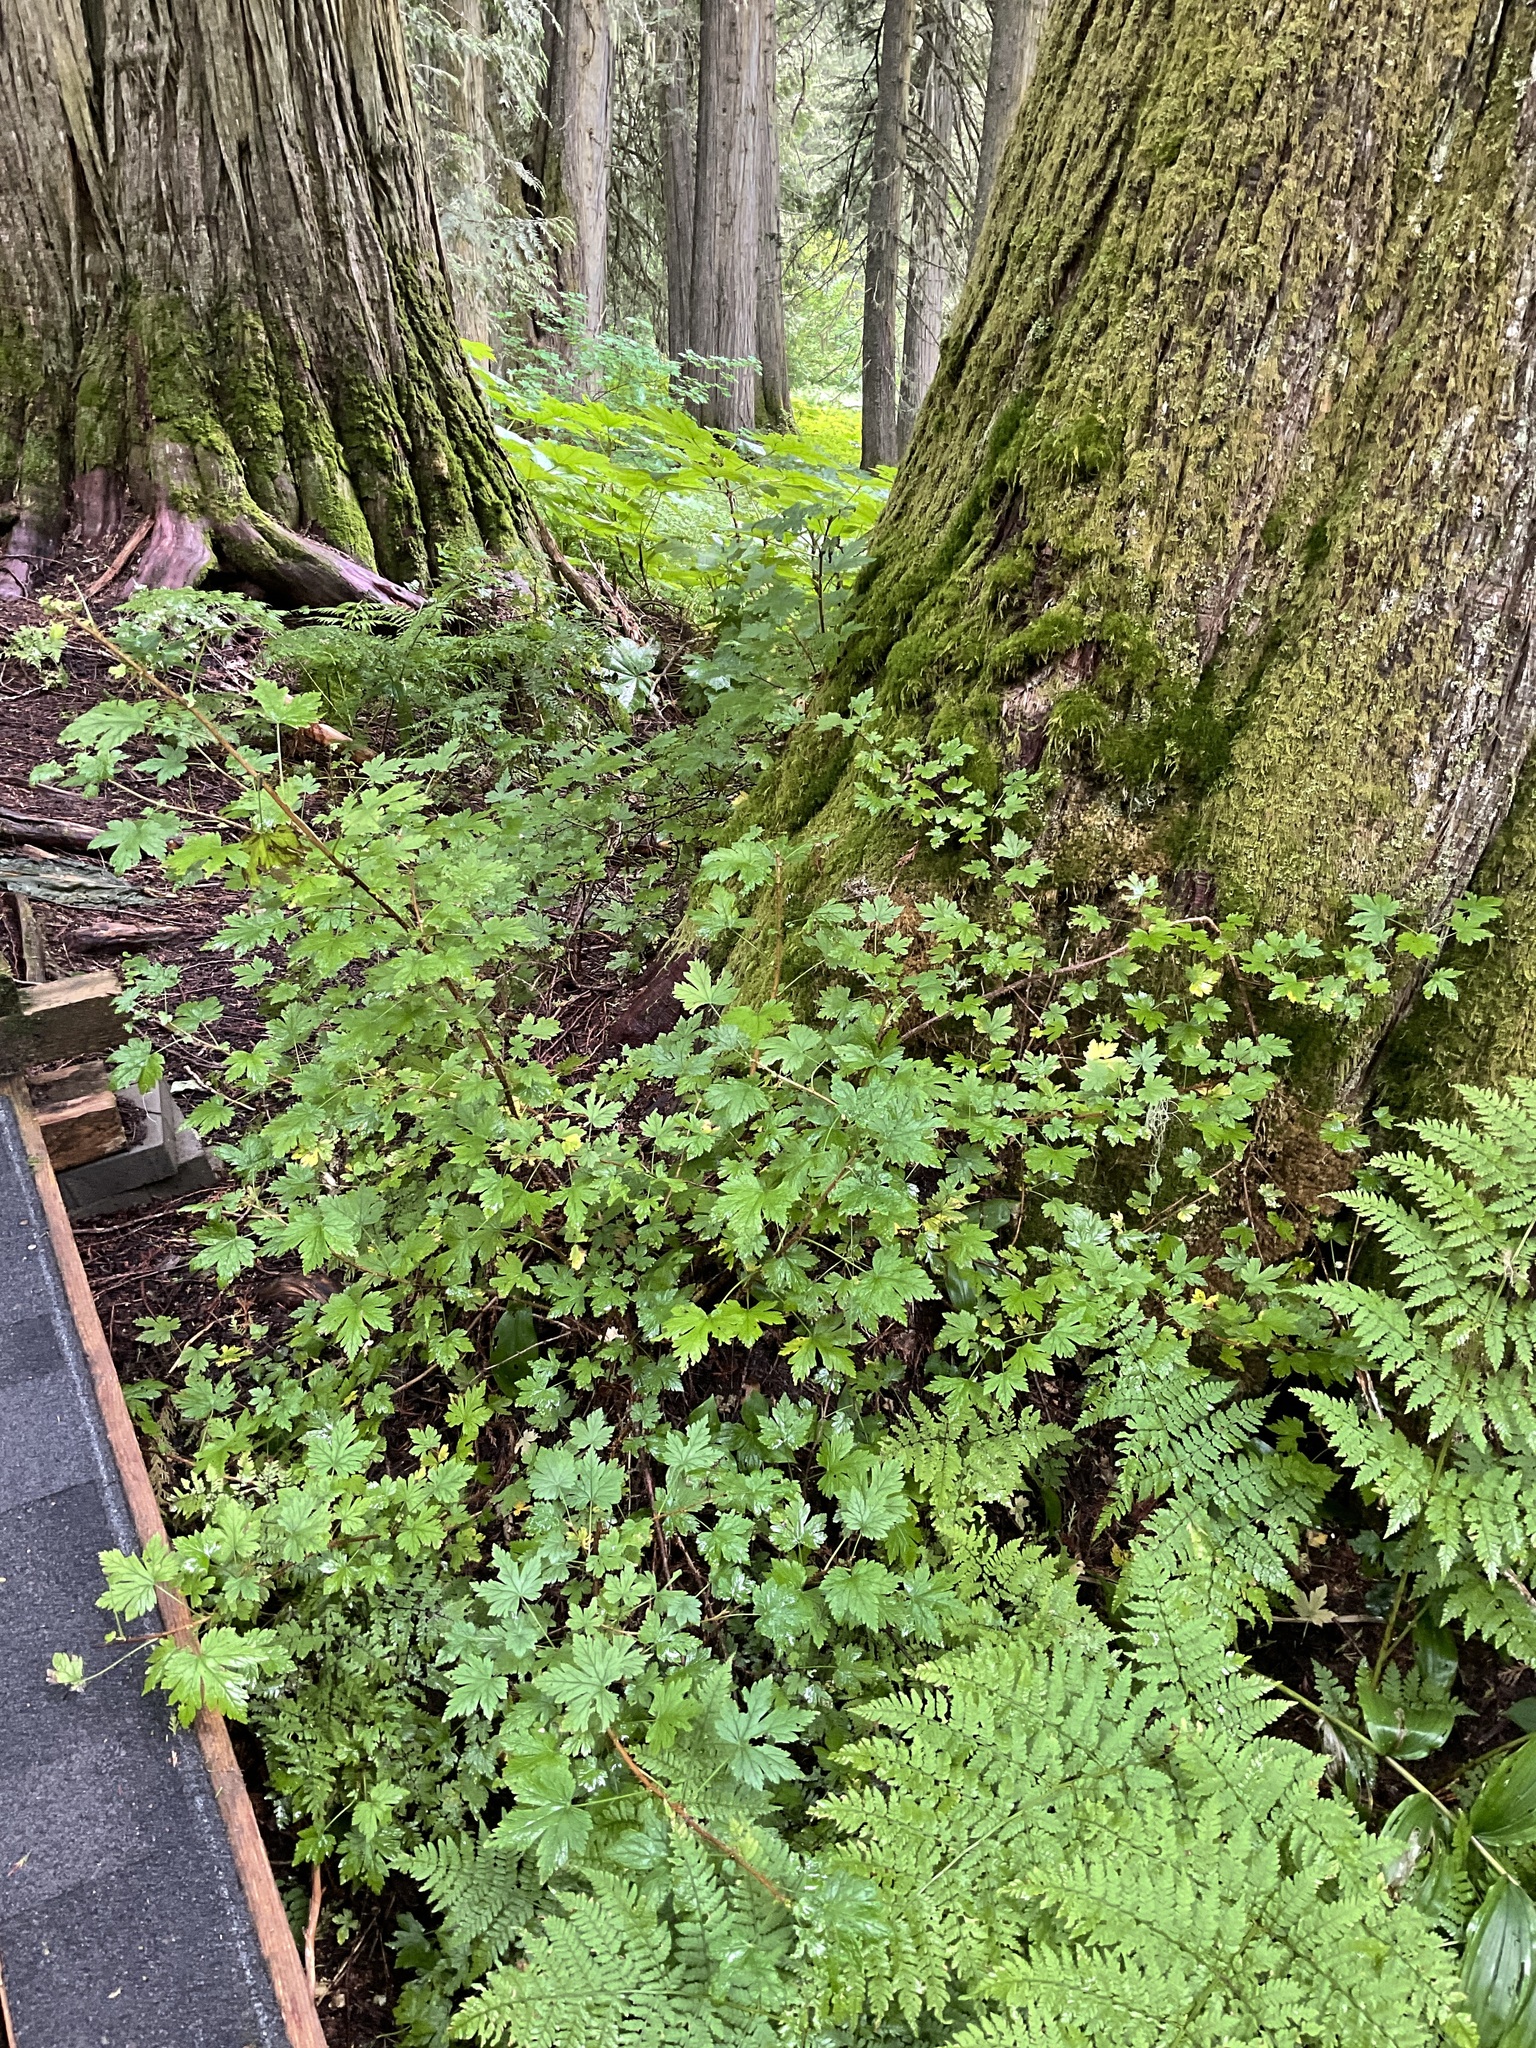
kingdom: Plantae
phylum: Tracheophyta
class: Magnoliopsida
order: Saxifragales
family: Grossulariaceae
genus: Ribes
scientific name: Ribes lacustre
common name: Black gooseberry
